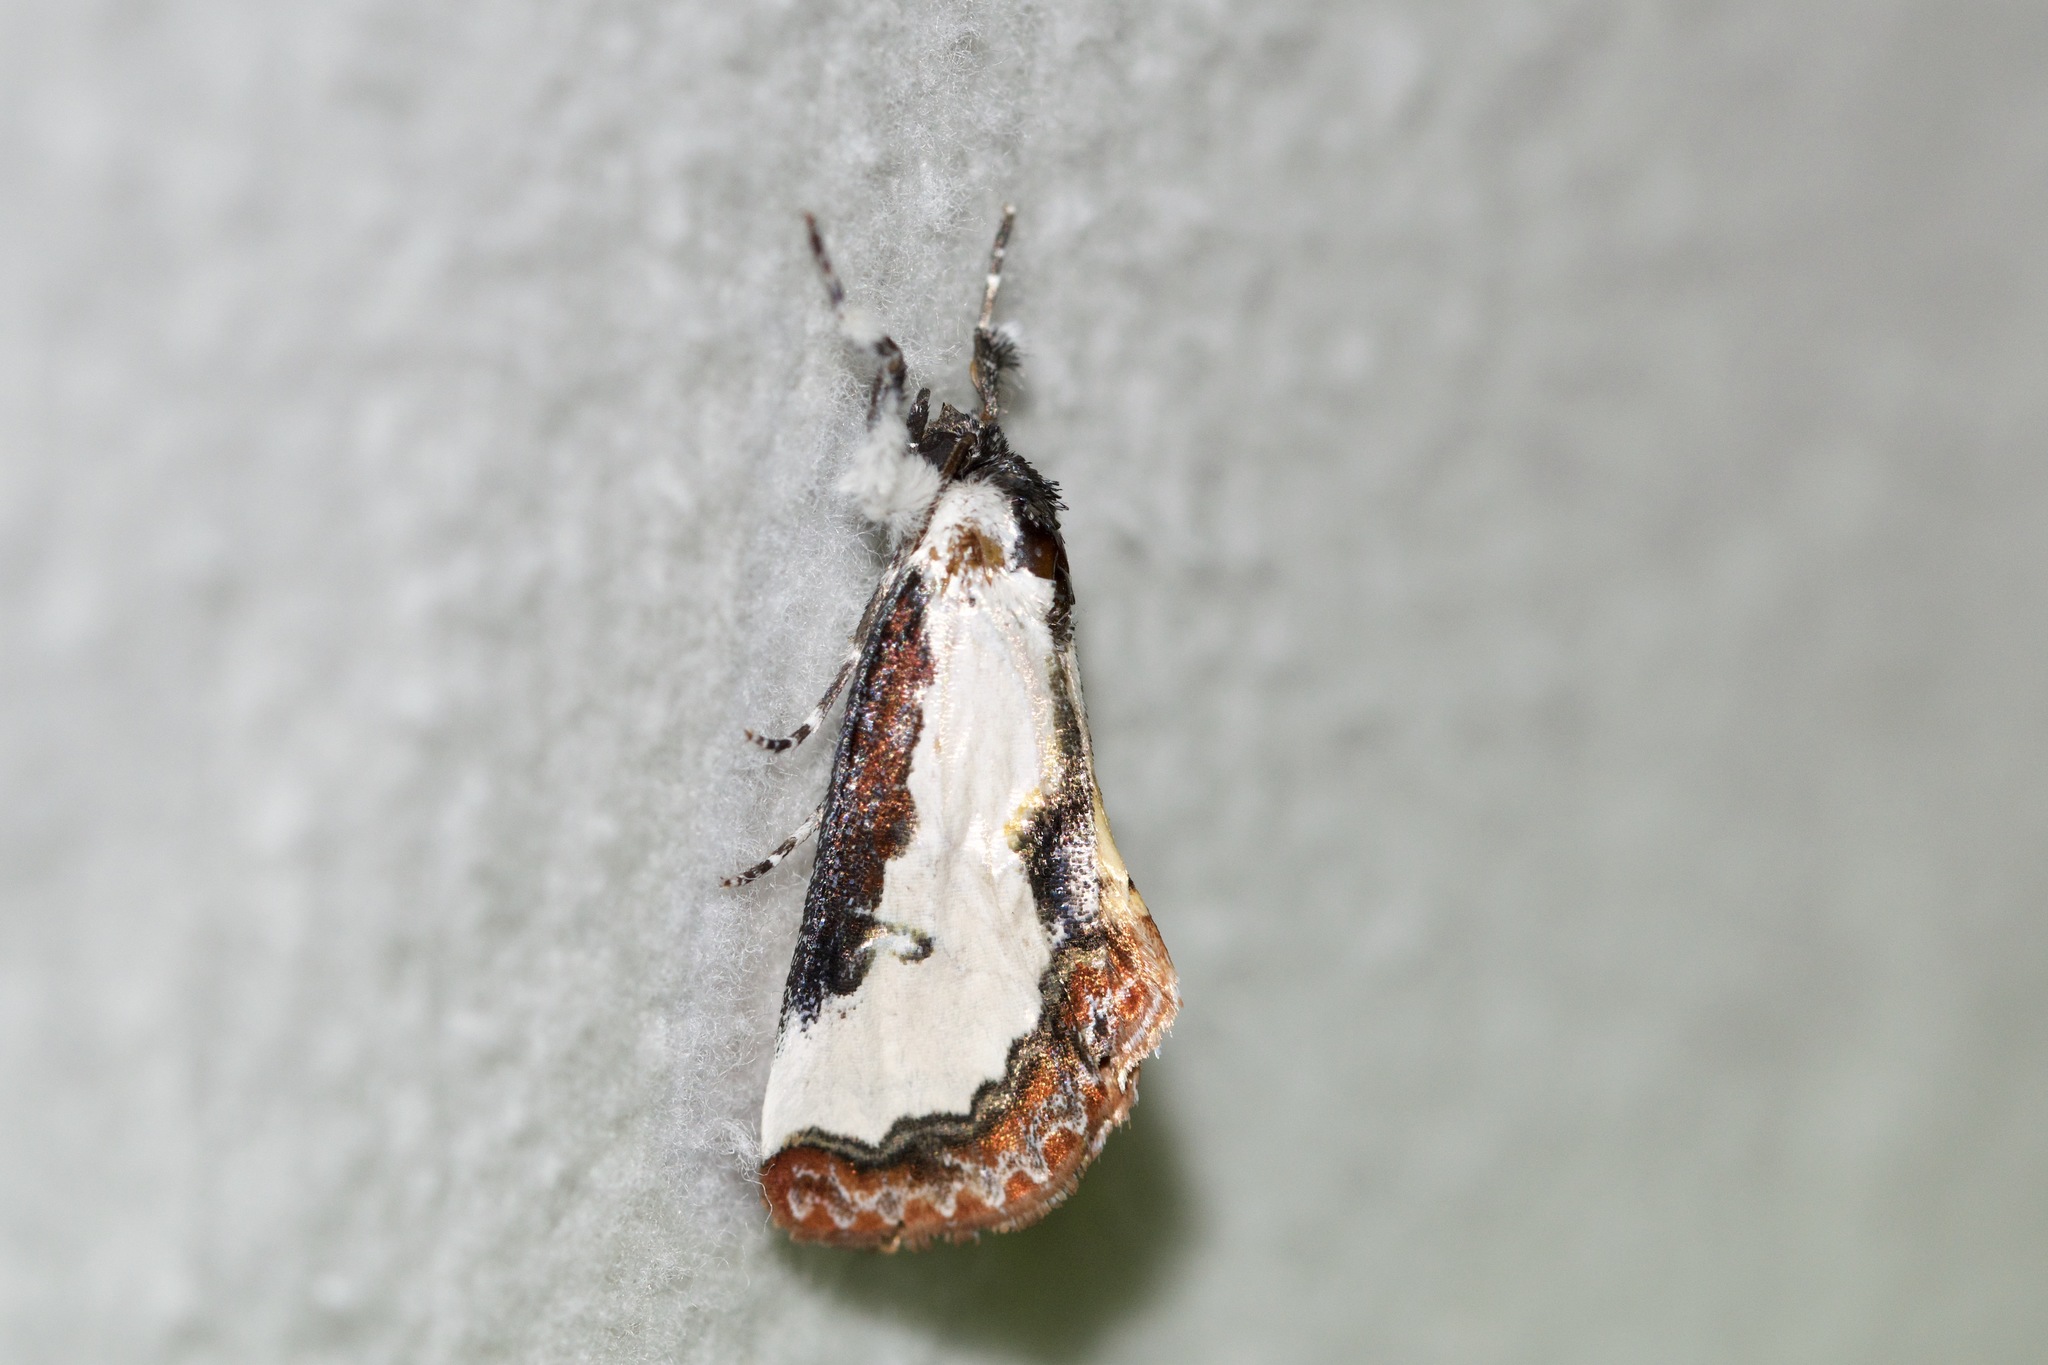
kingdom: Animalia
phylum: Arthropoda
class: Insecta
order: Lepidoptera
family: Noctuidae
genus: Eudryas
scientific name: Eudryas unio
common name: Pearly wood-nymph
